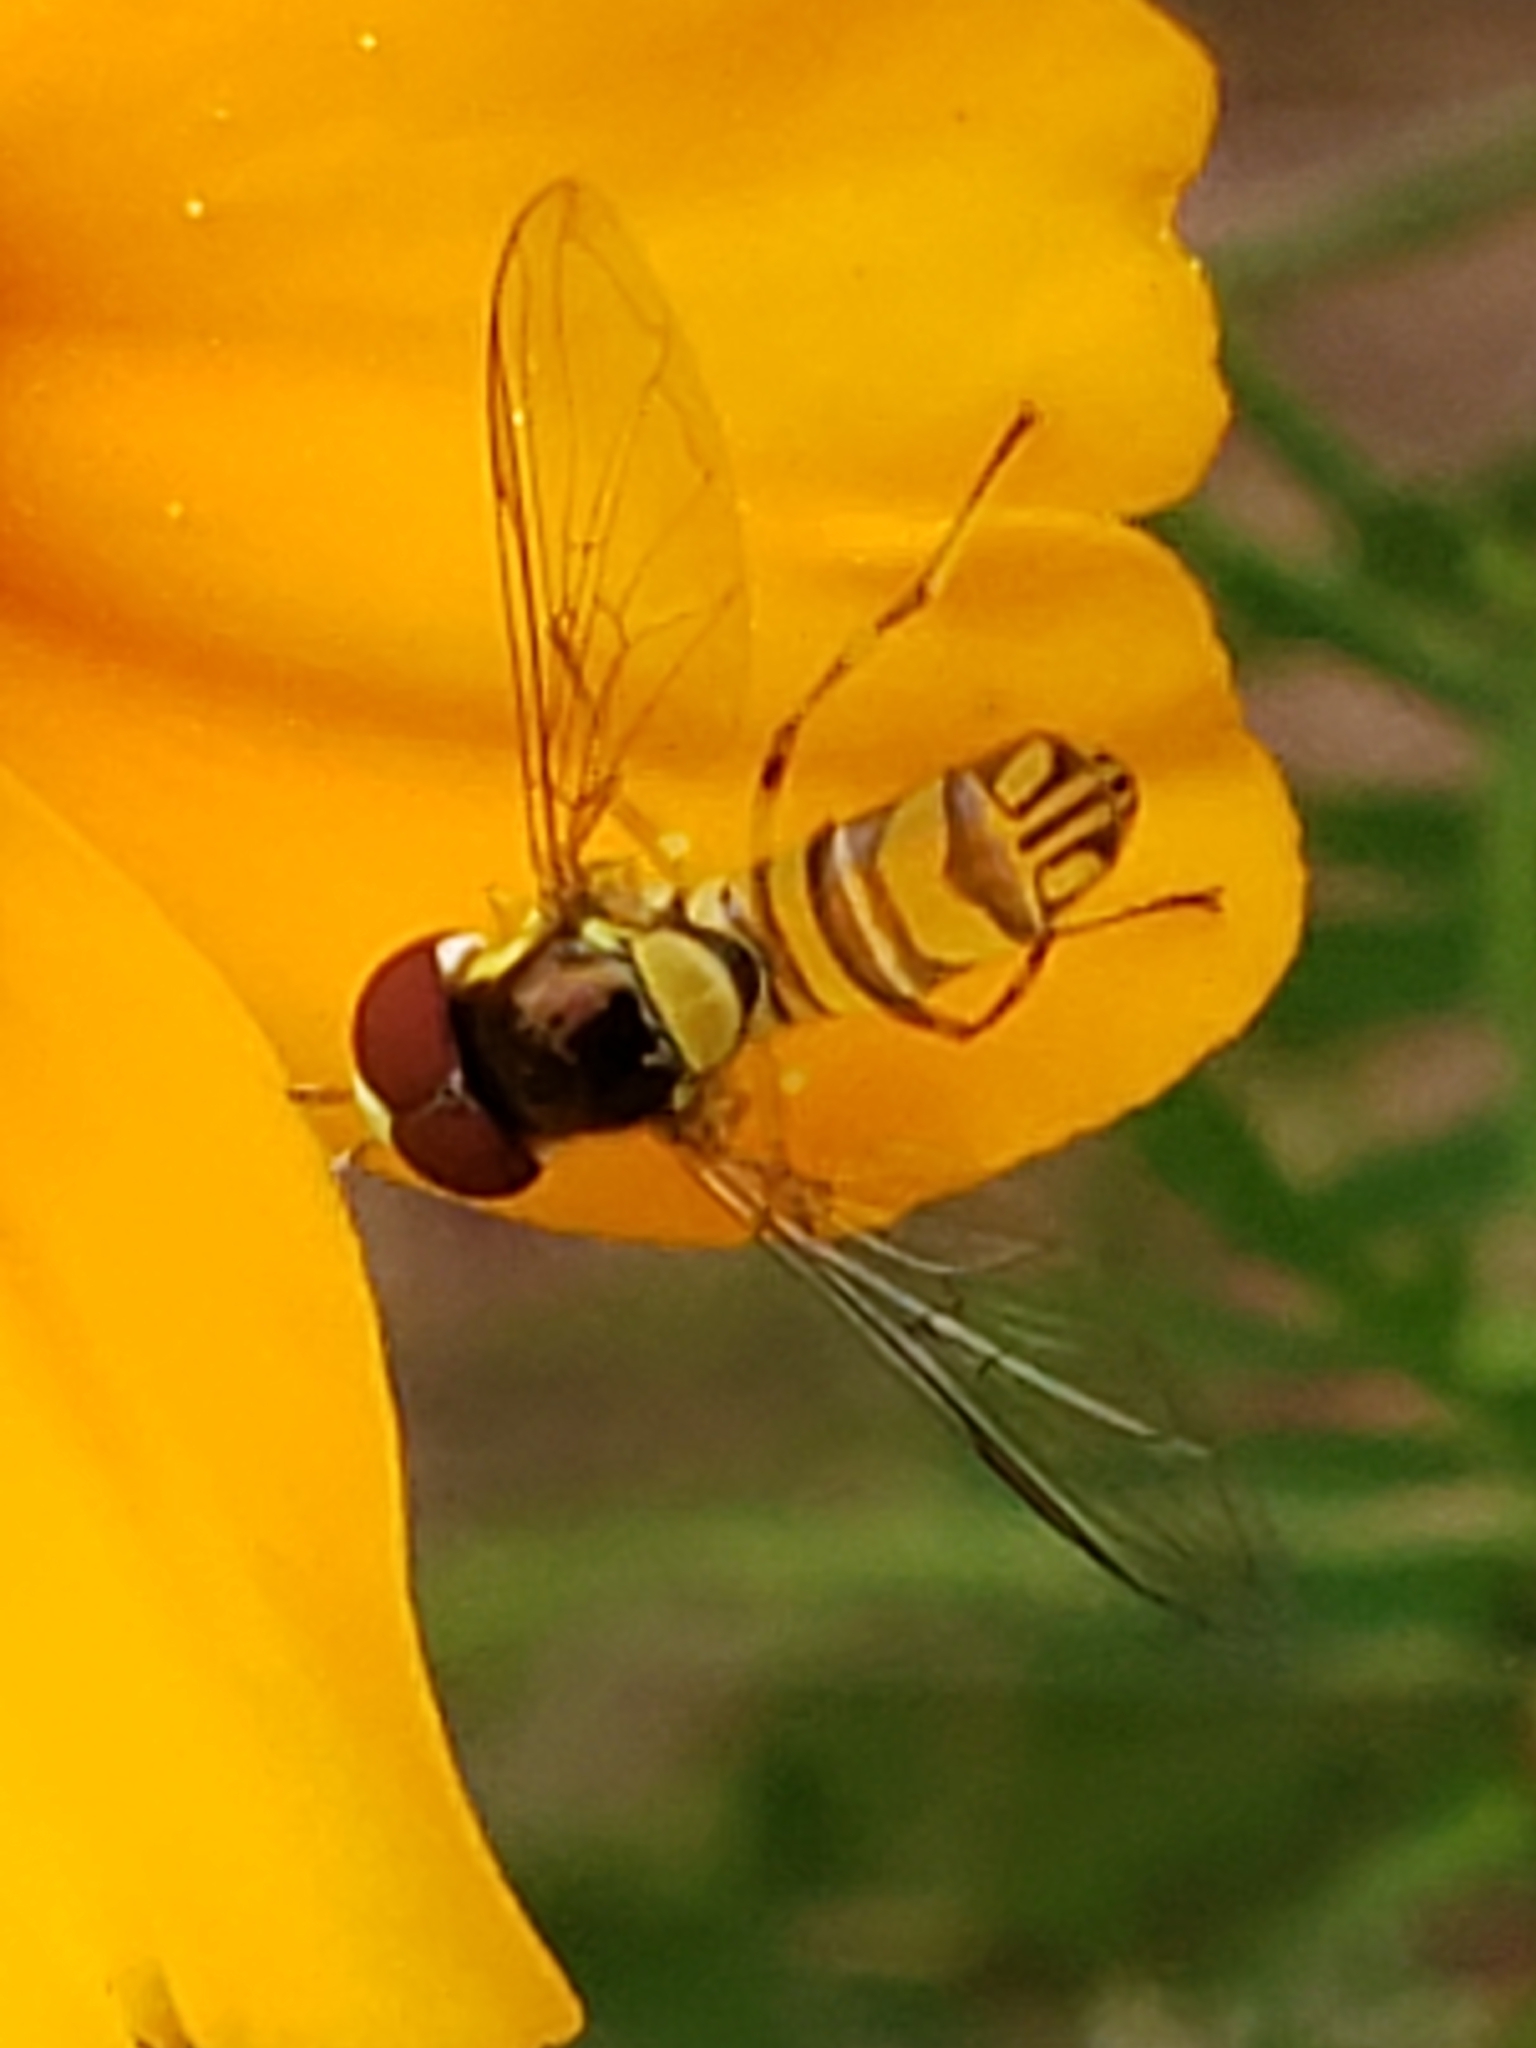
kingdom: Animalia
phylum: Arthropoda
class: Insecta
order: Diptera
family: Syrphidae
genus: Allograpta
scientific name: Allograpta obliqua
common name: Common oblique syrphid
